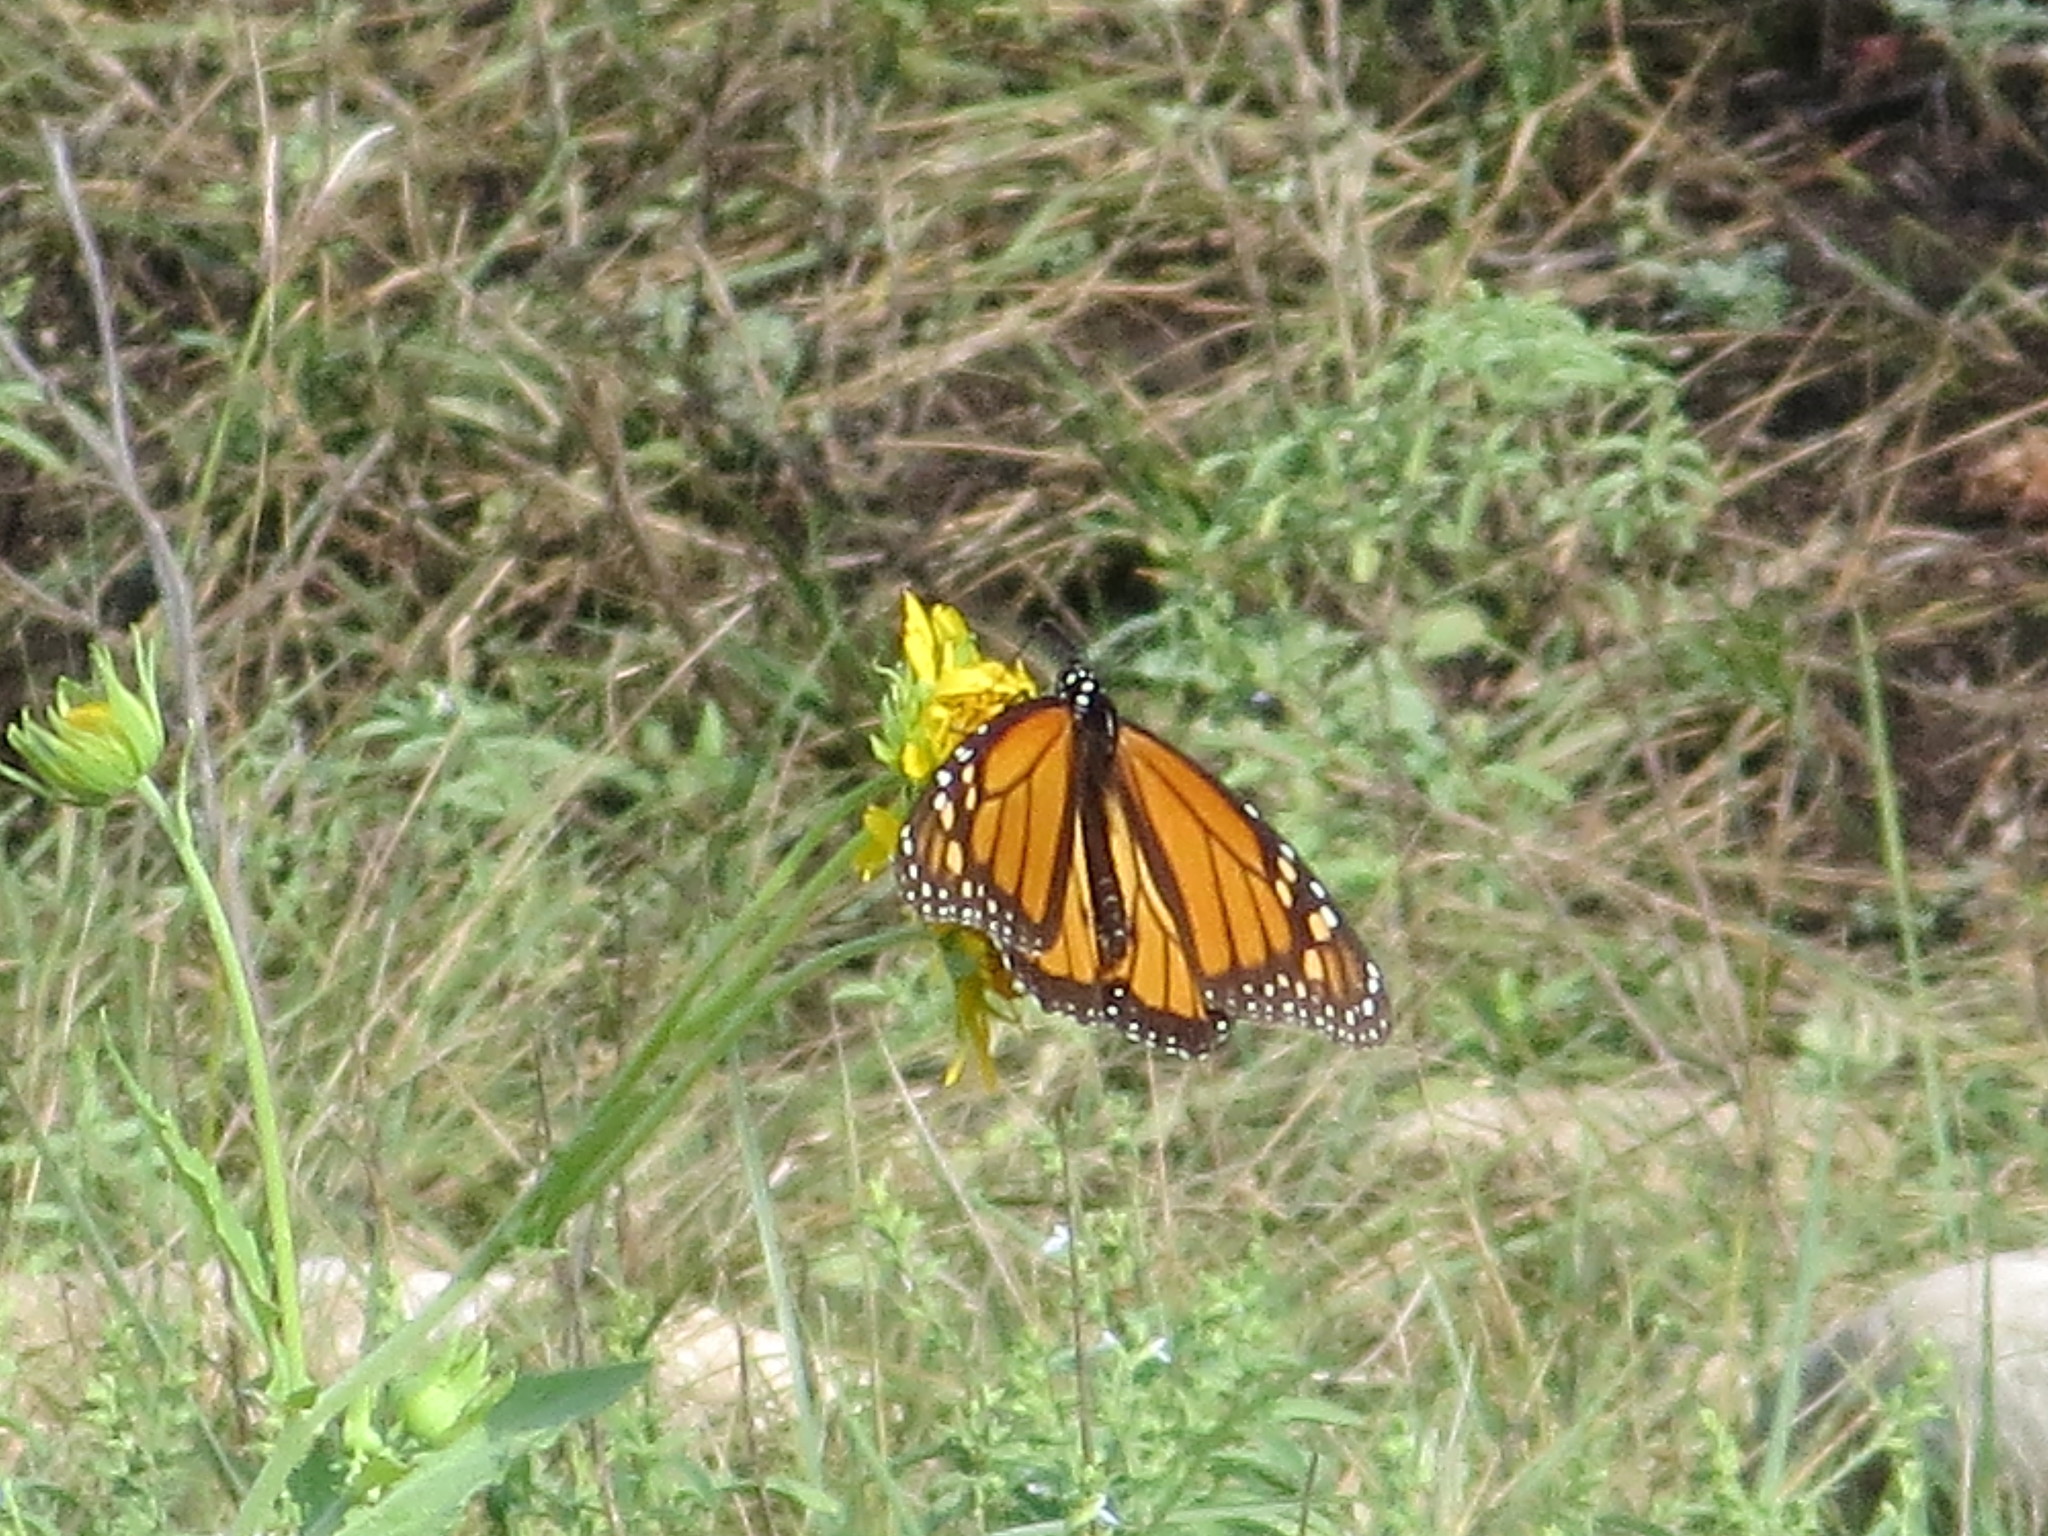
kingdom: Animalia
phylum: Arthropoda
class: Insecta
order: Lepidoptera
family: Nymphalidae
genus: Danaus
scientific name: Danaus plexippus
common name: Monarch
